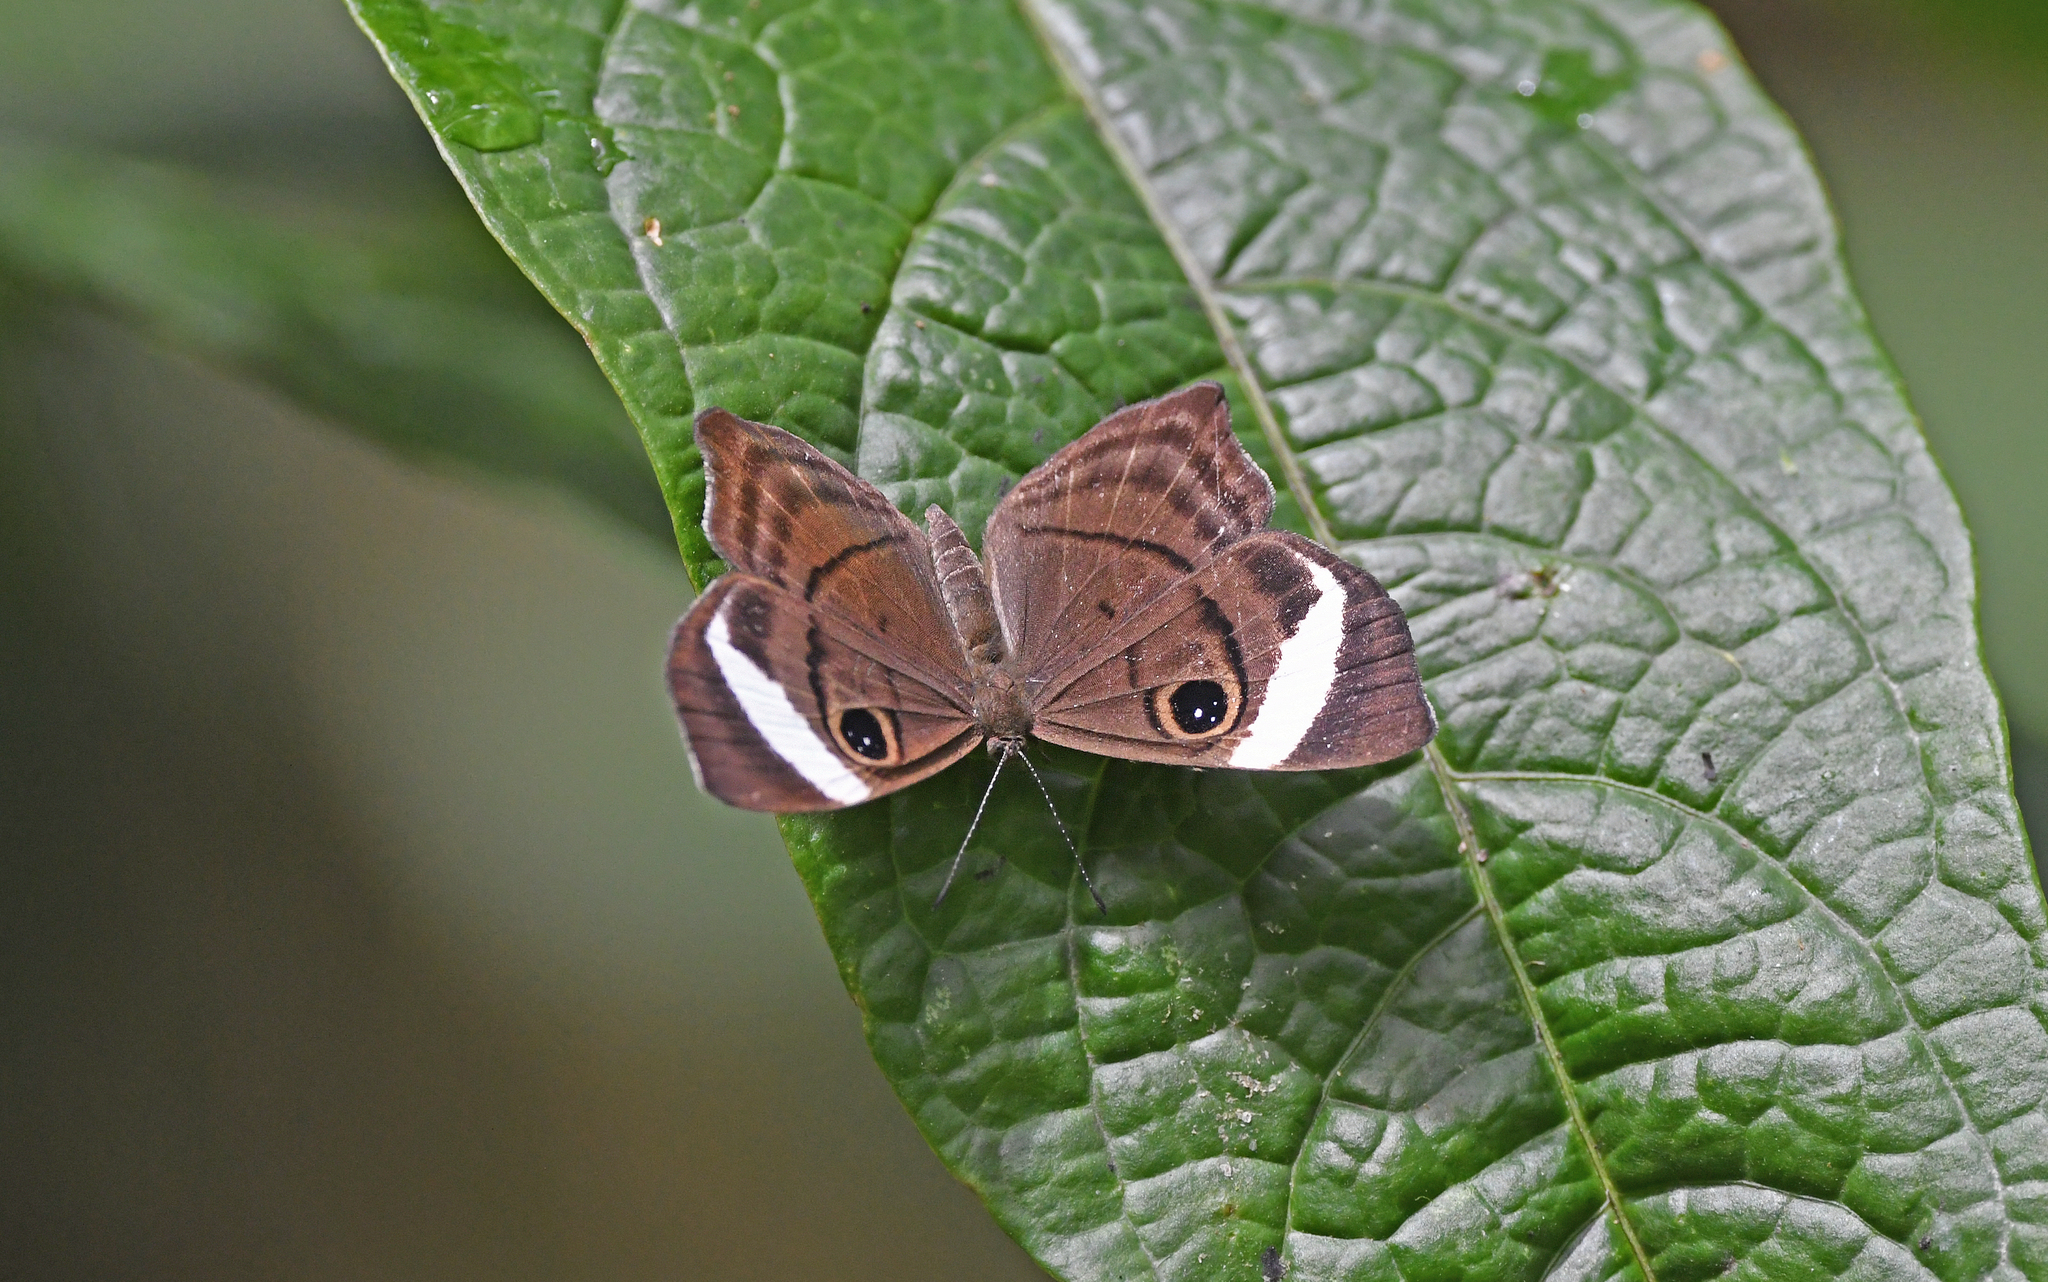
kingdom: Animalia
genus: Mesosemia
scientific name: Mesosemia metuana
